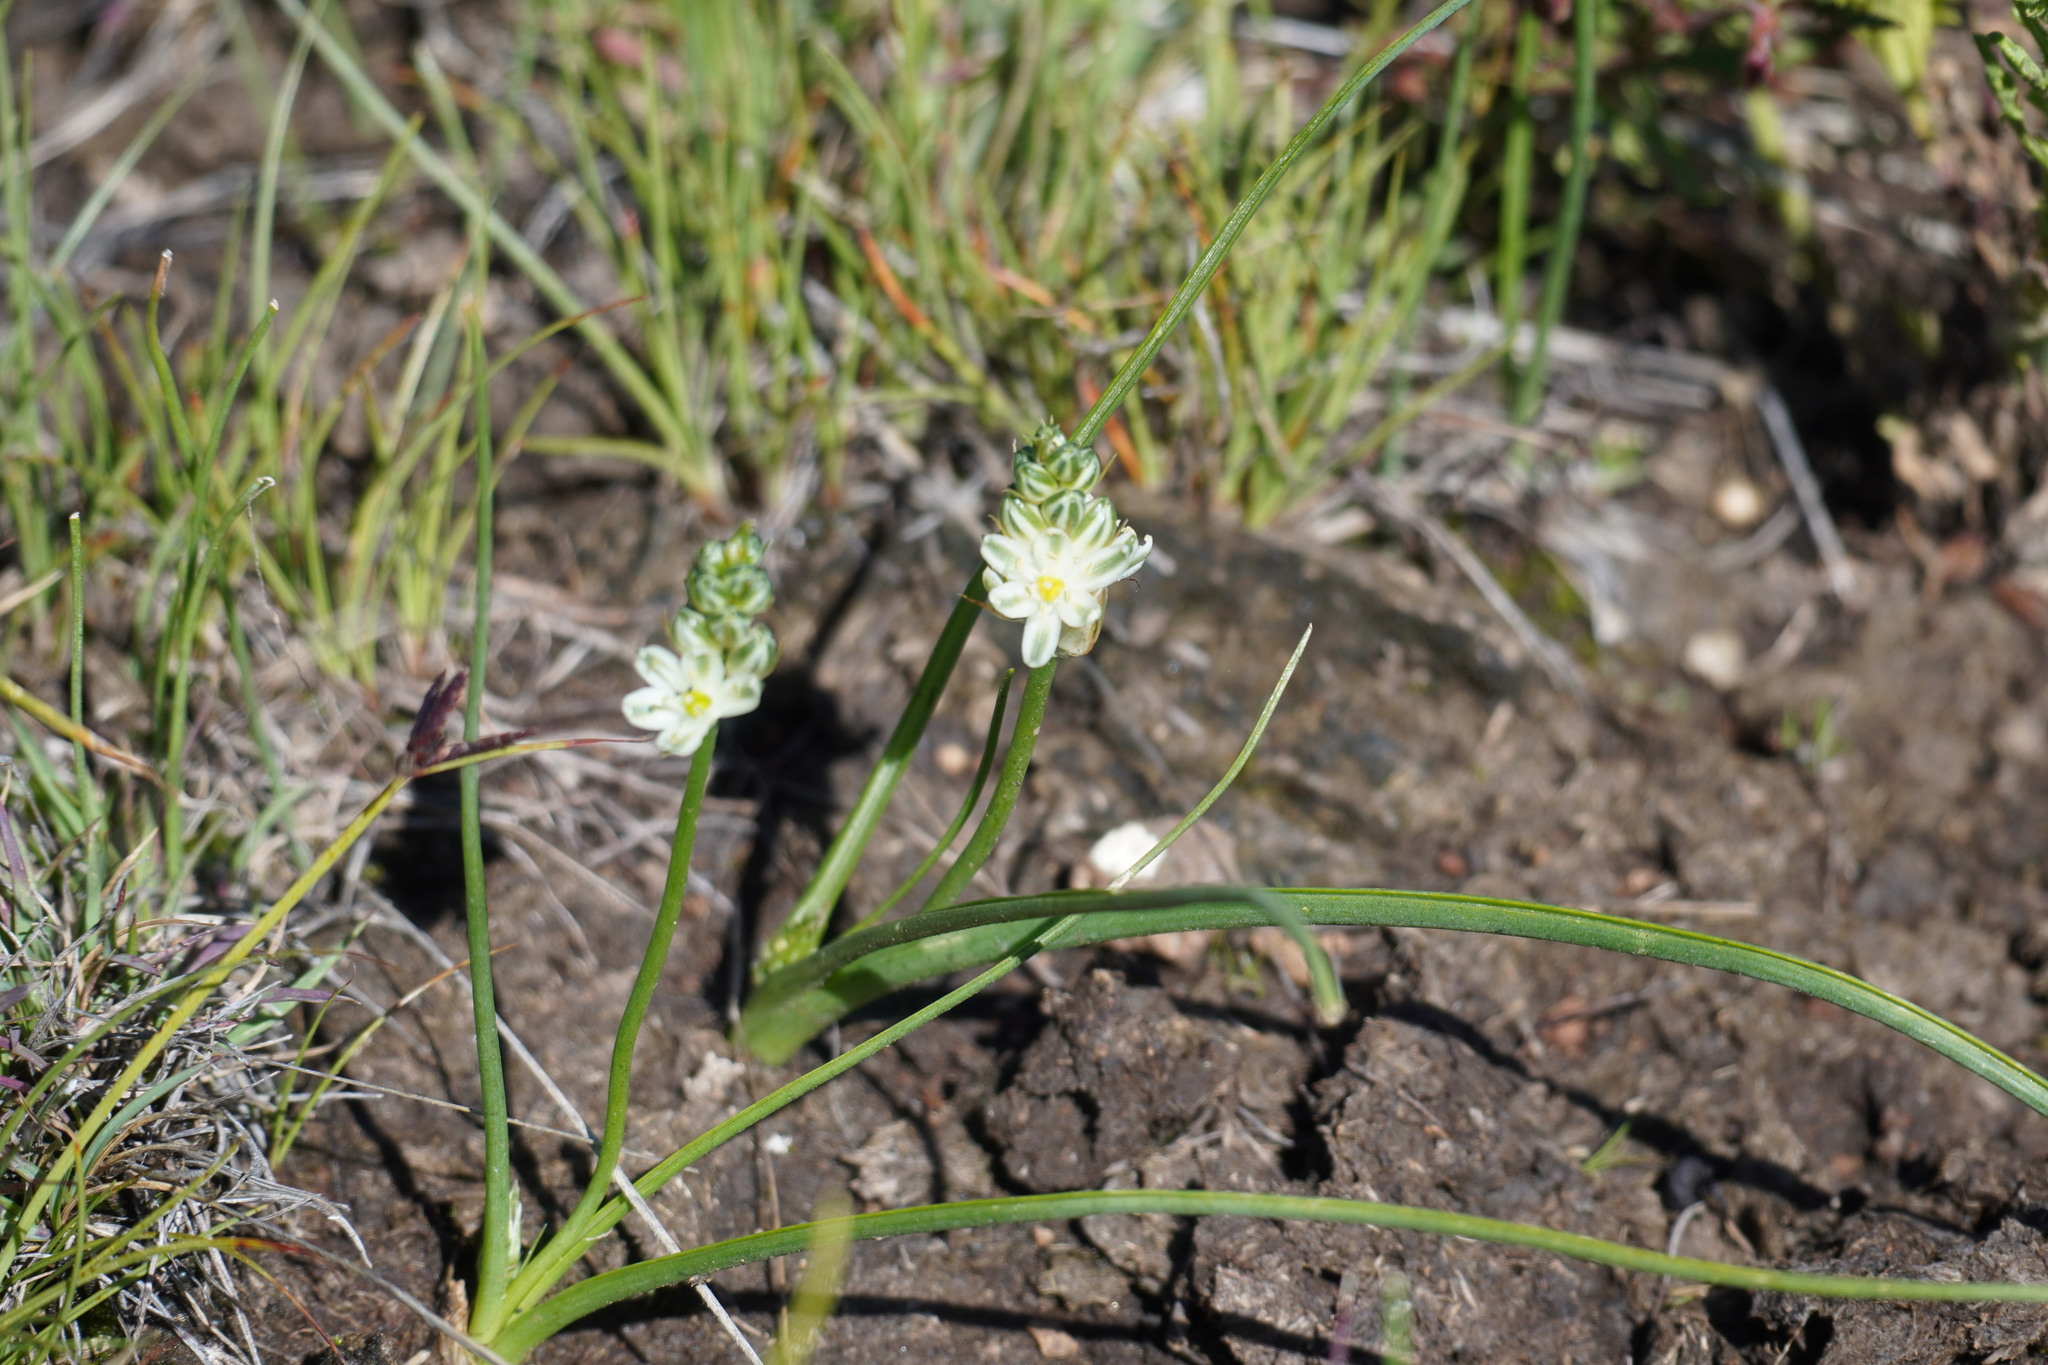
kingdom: Plantae
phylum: Tracheophyta
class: Liliopsida
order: Asparagales
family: Asparagaceae
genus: Albuca
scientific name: Albuca virens
